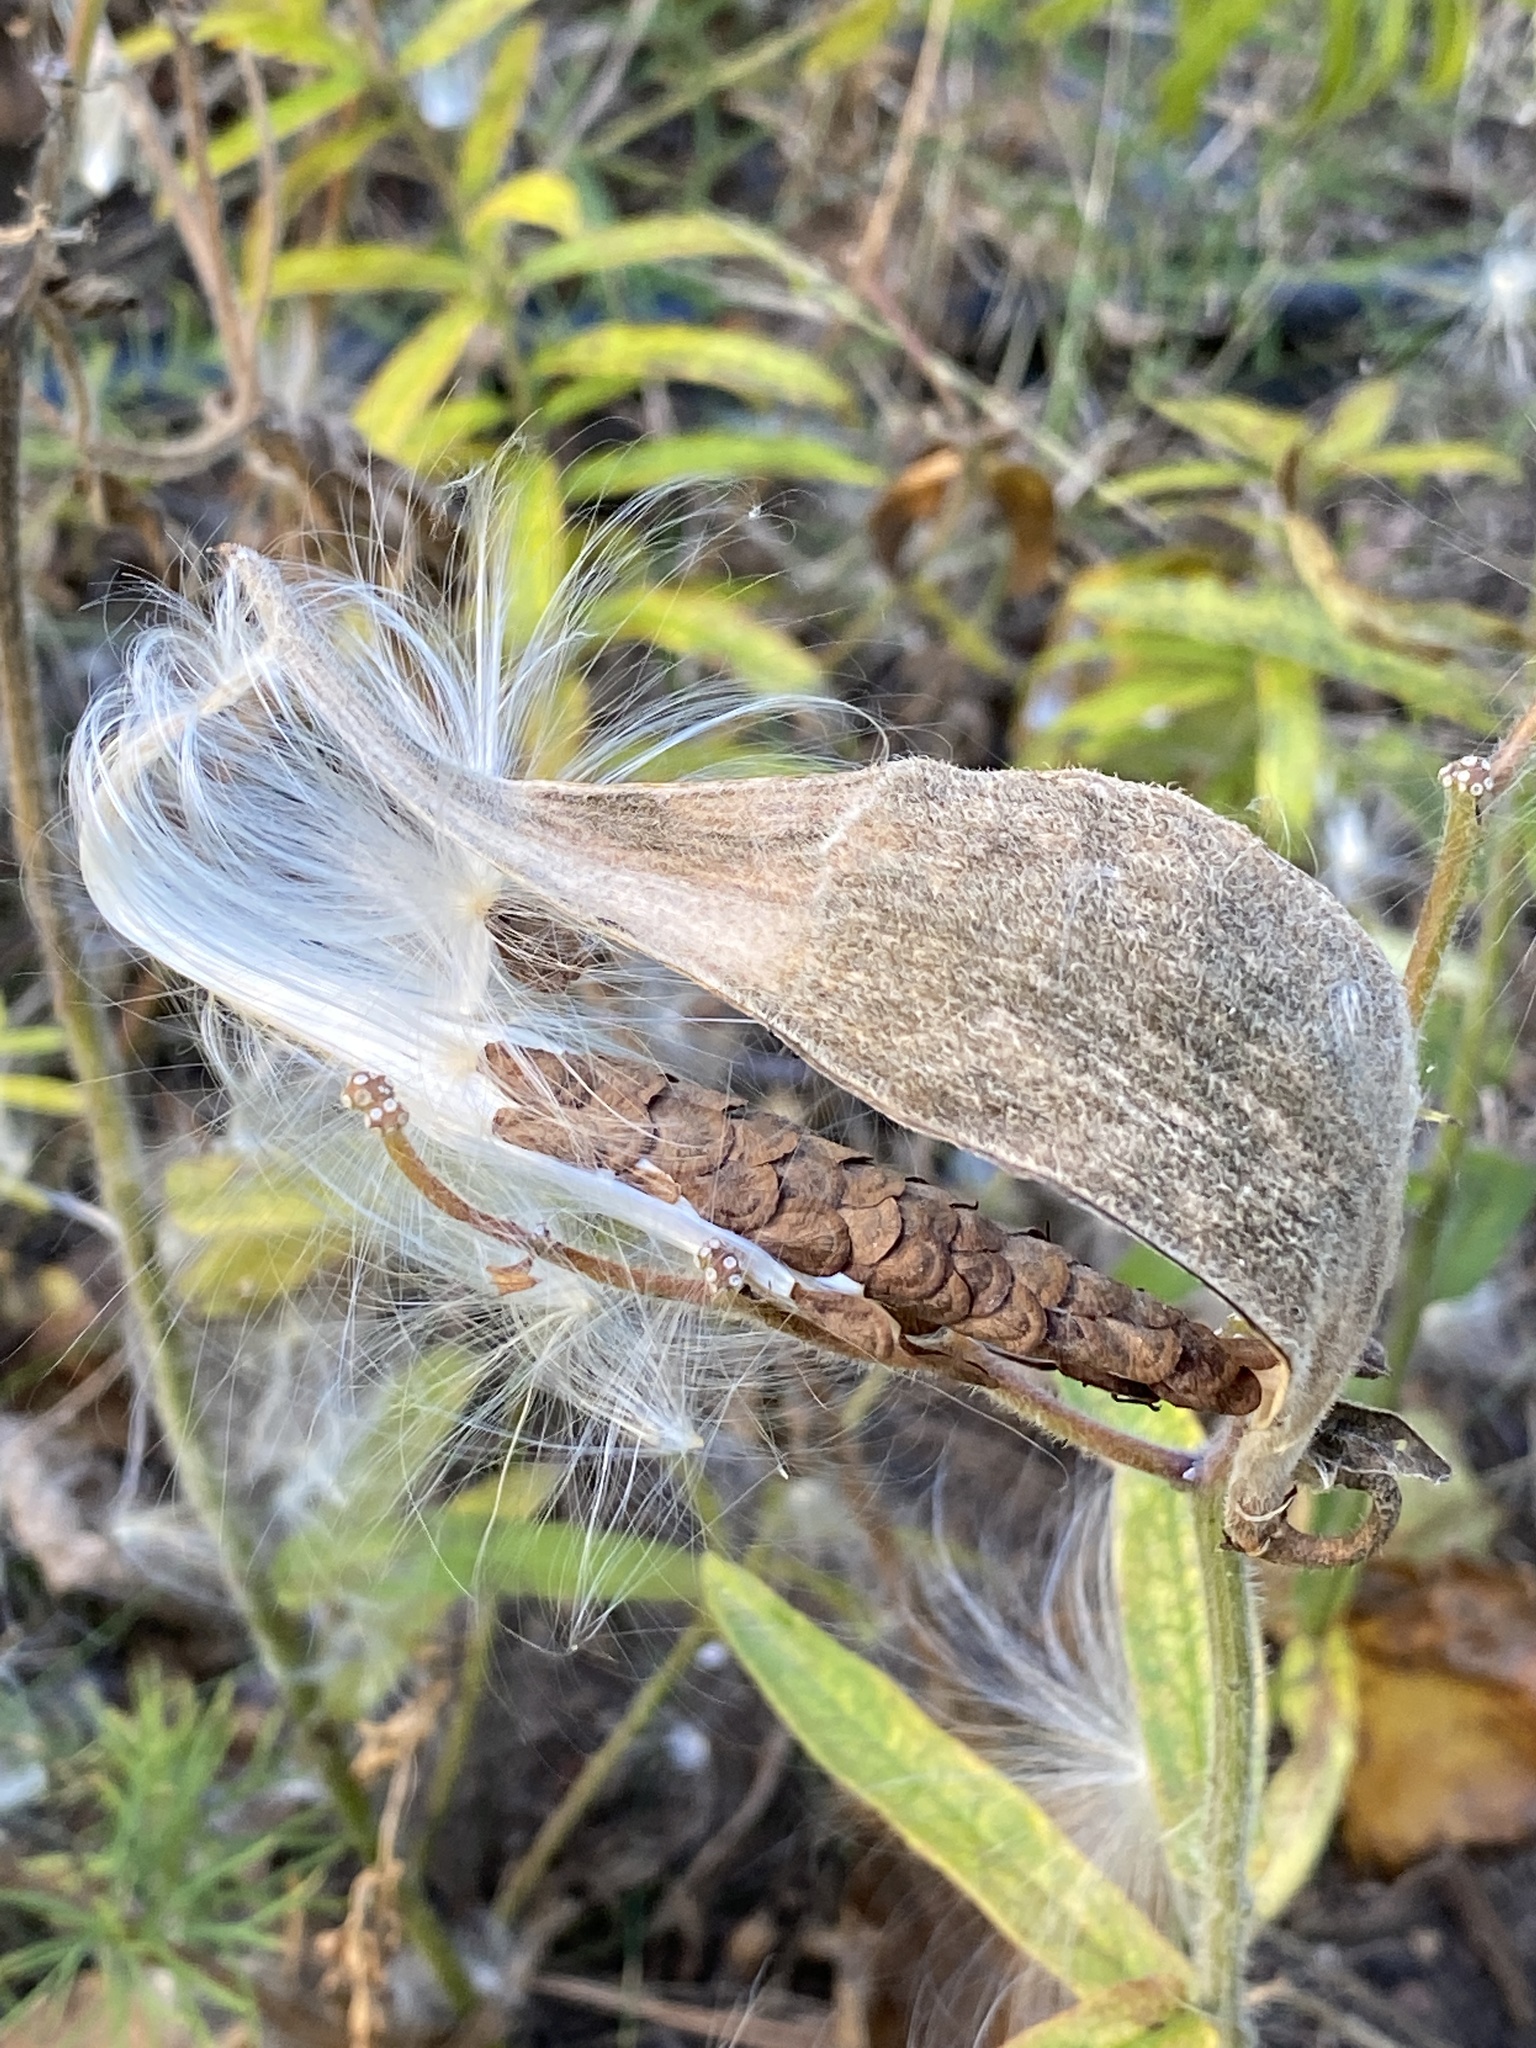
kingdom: Plantae
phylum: Tracheophyta
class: Magnoliopsida
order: Gentianales
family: Apocynaceae
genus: Asclepias
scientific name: Asclepias tuberosa
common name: Butterfly milkweed
